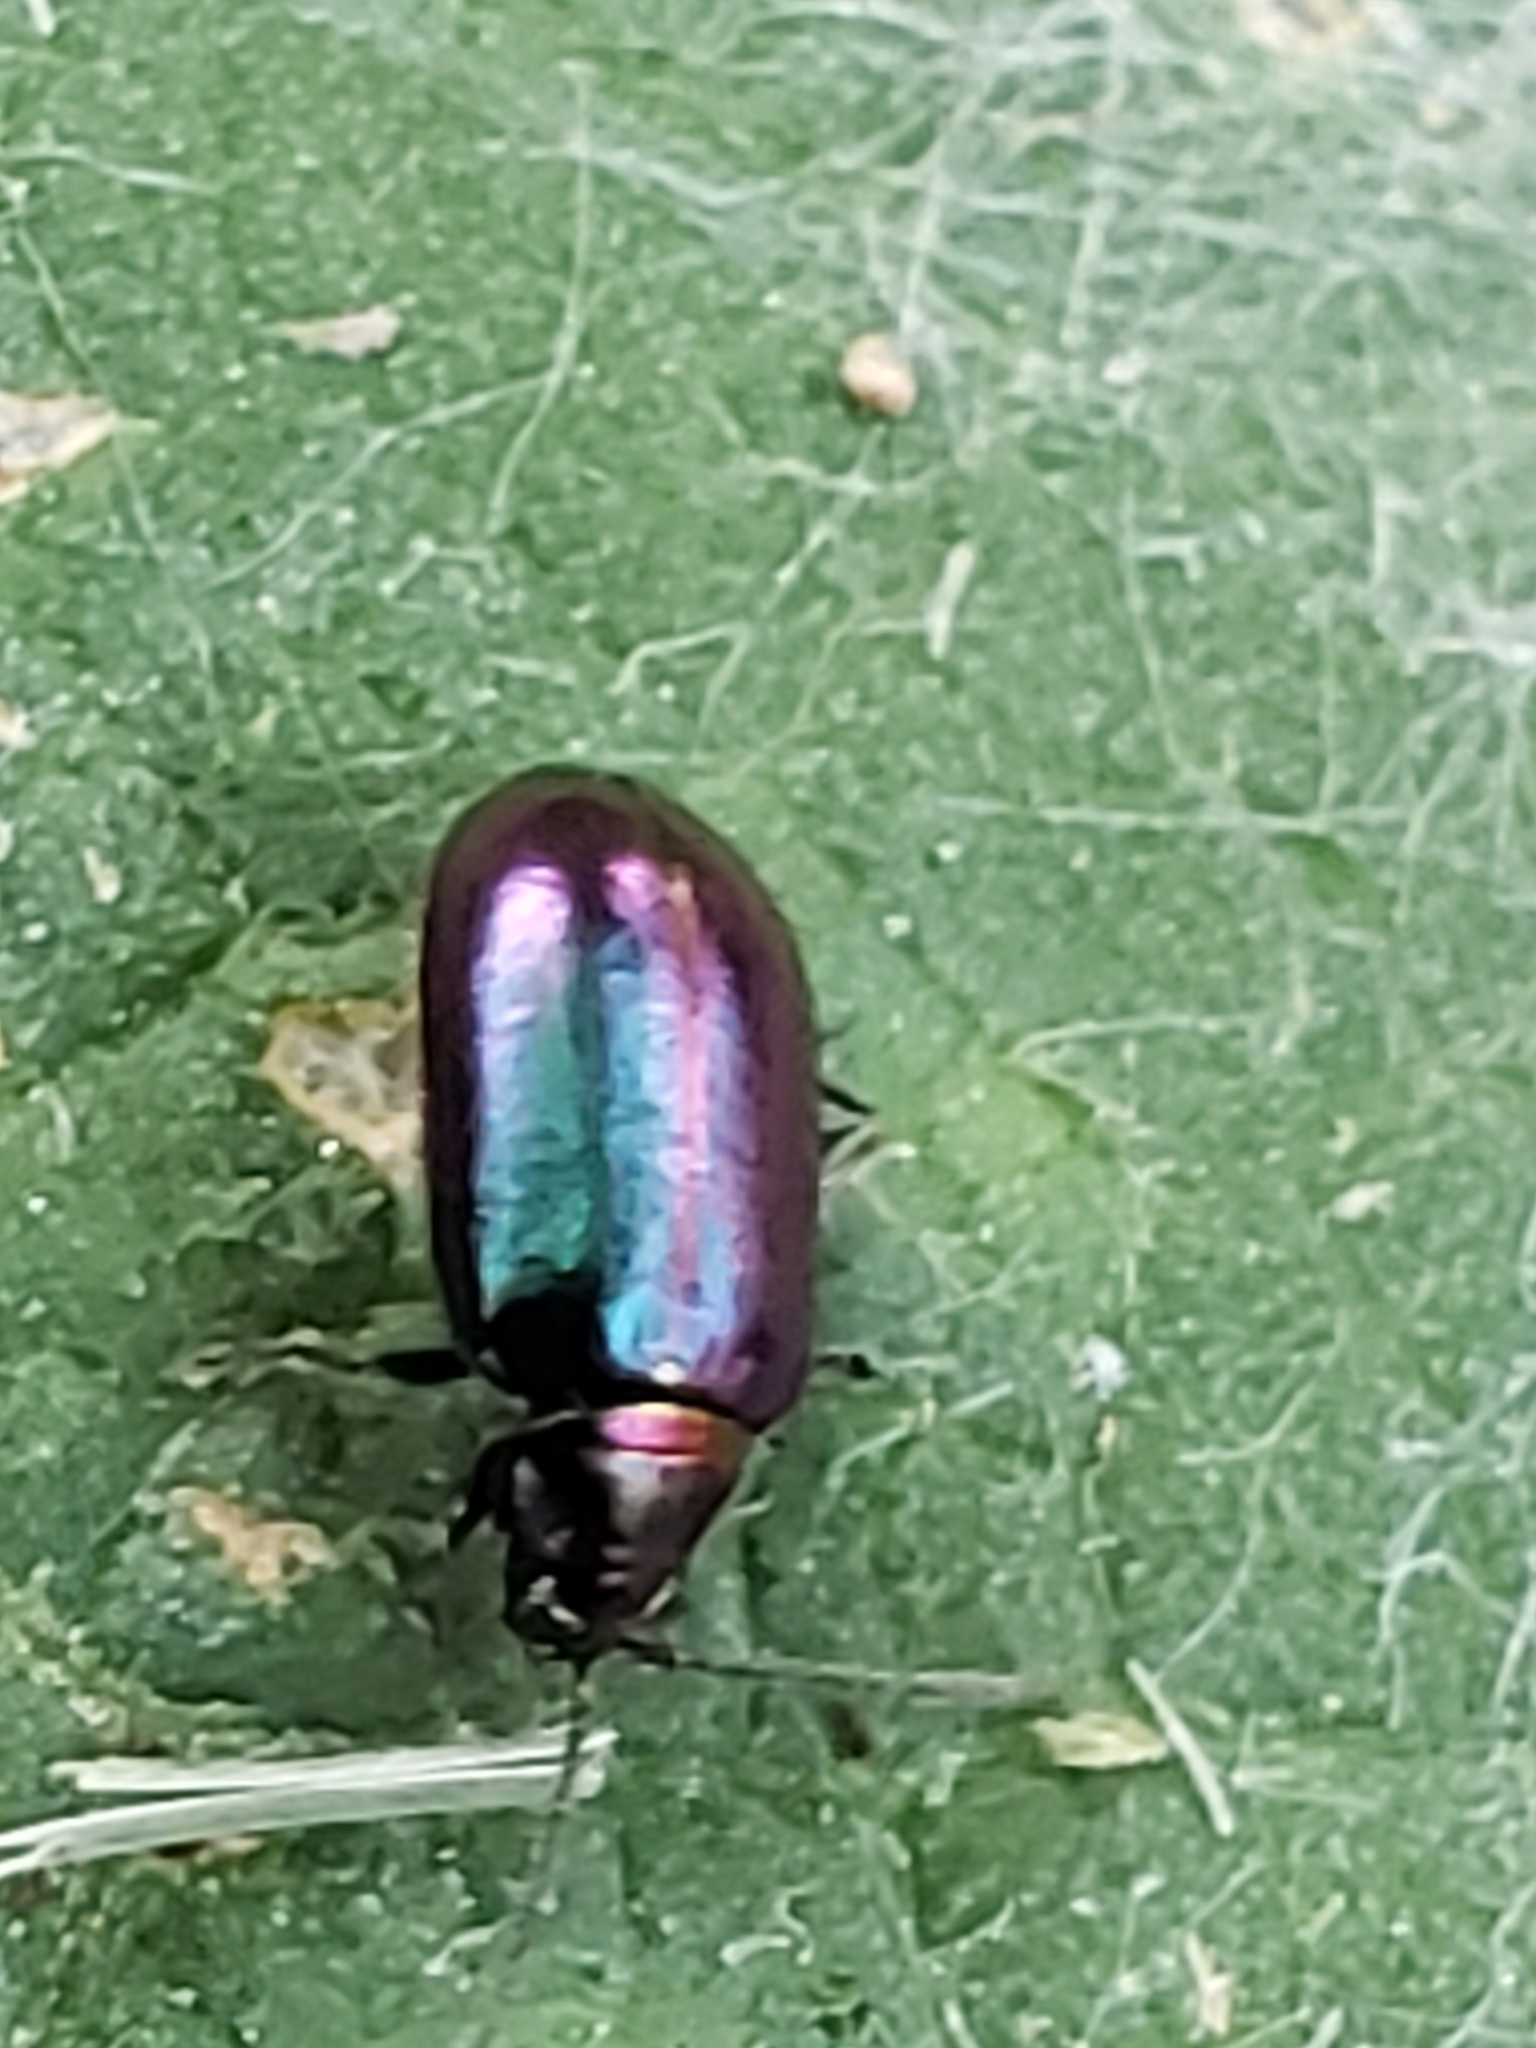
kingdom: Animalia
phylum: Arthropoda
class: Insecta
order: Coleoptera
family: Chrysomelidae
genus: Altica
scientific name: Altica torquata
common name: Leaf beetle
